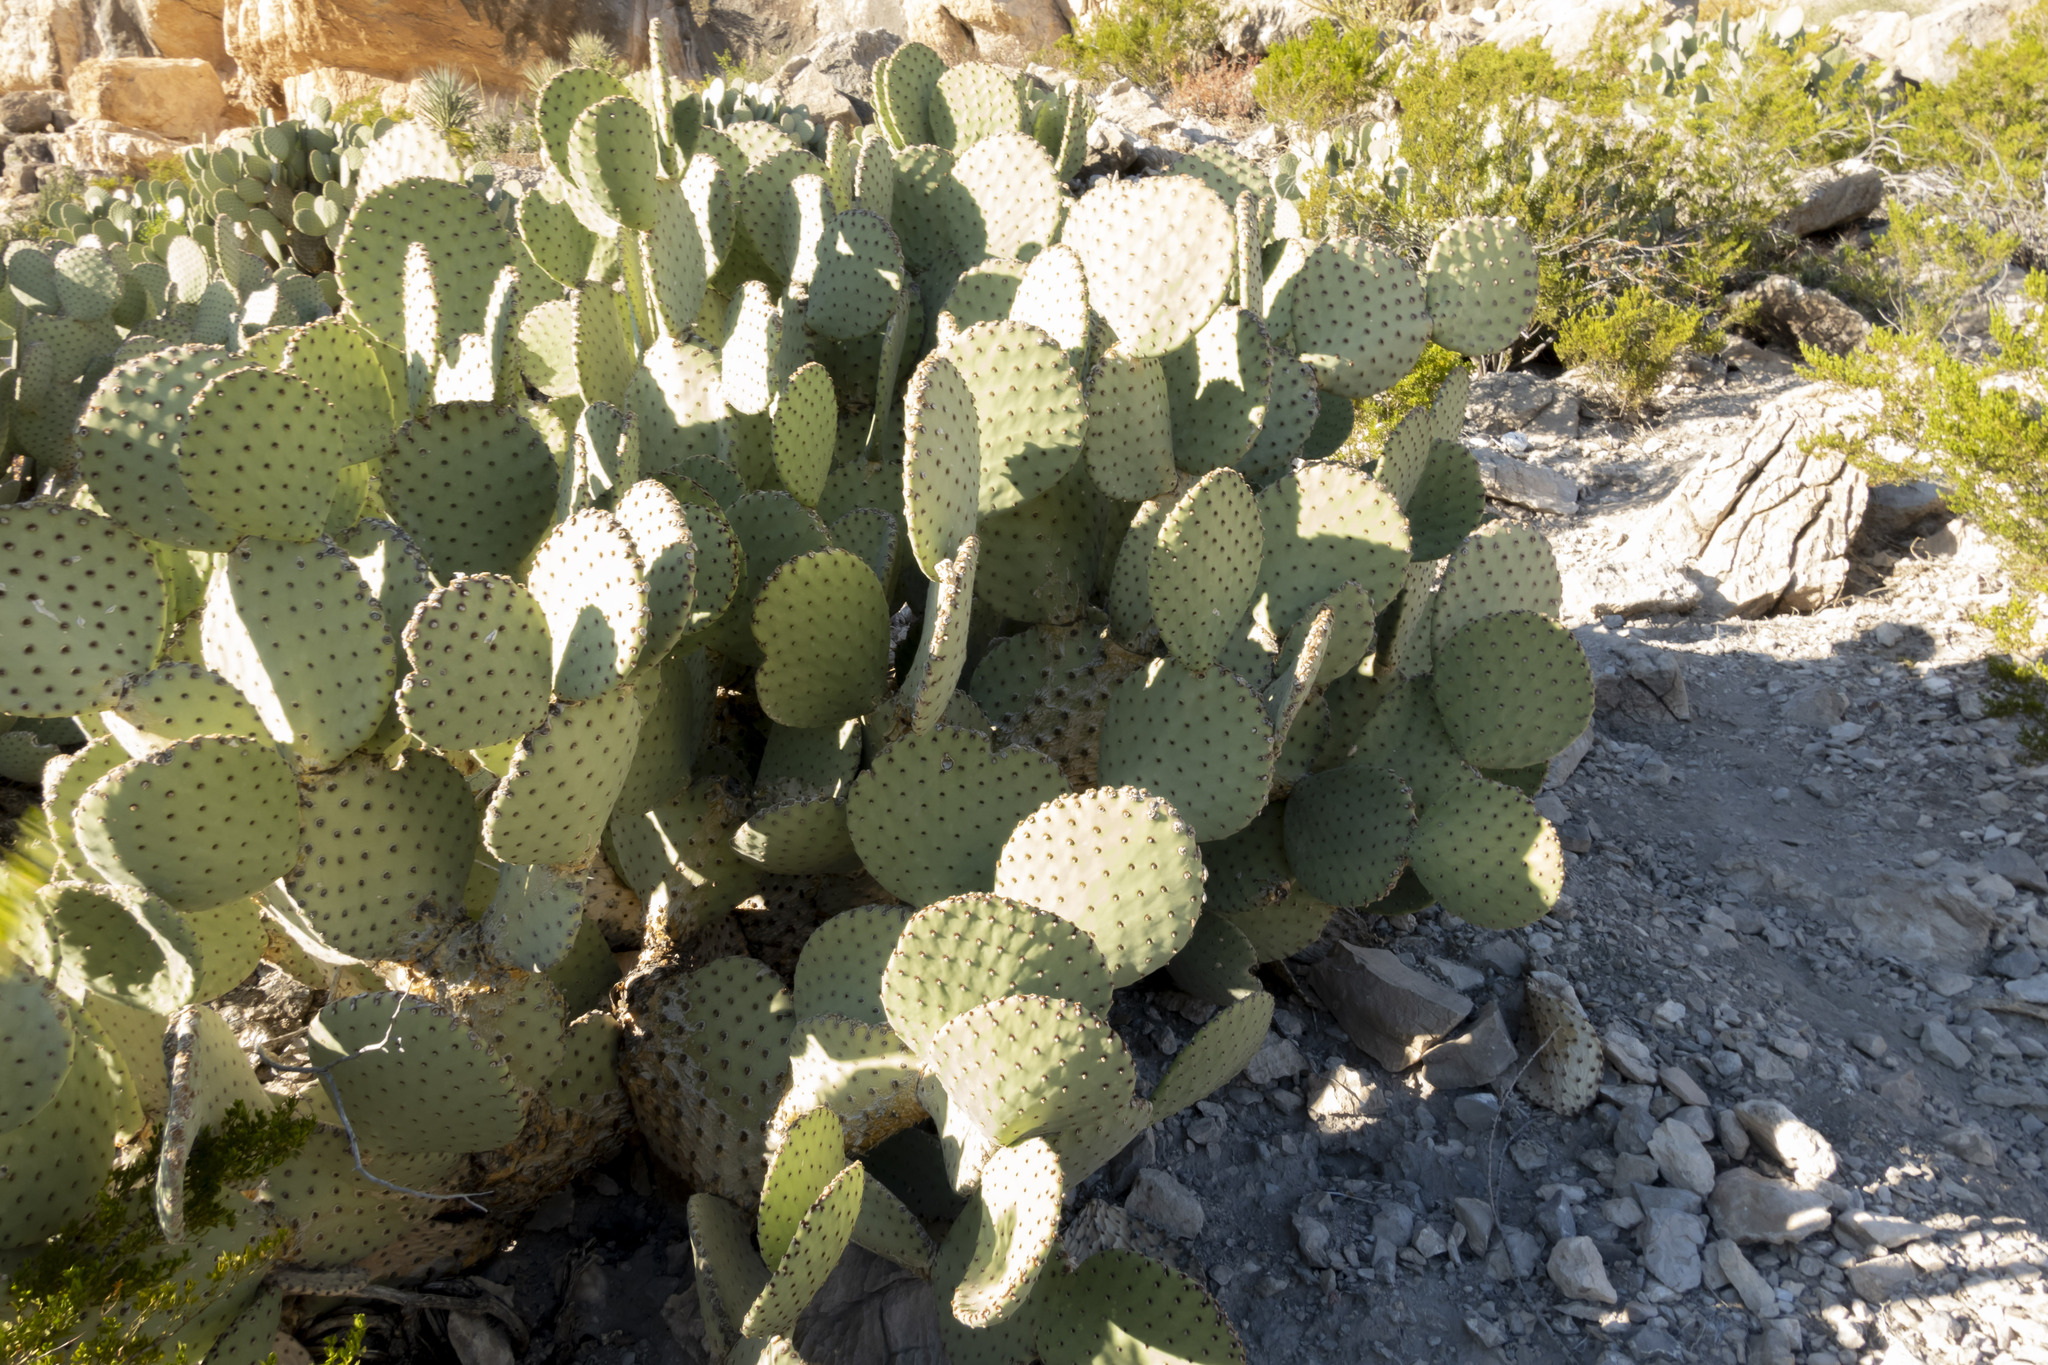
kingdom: Plantae
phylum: Tracheophyta
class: Magnoliopsida
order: Caryophyllales
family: Cactaceae
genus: Opuntia
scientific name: Opuntia rufida
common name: Blind pricklypear
